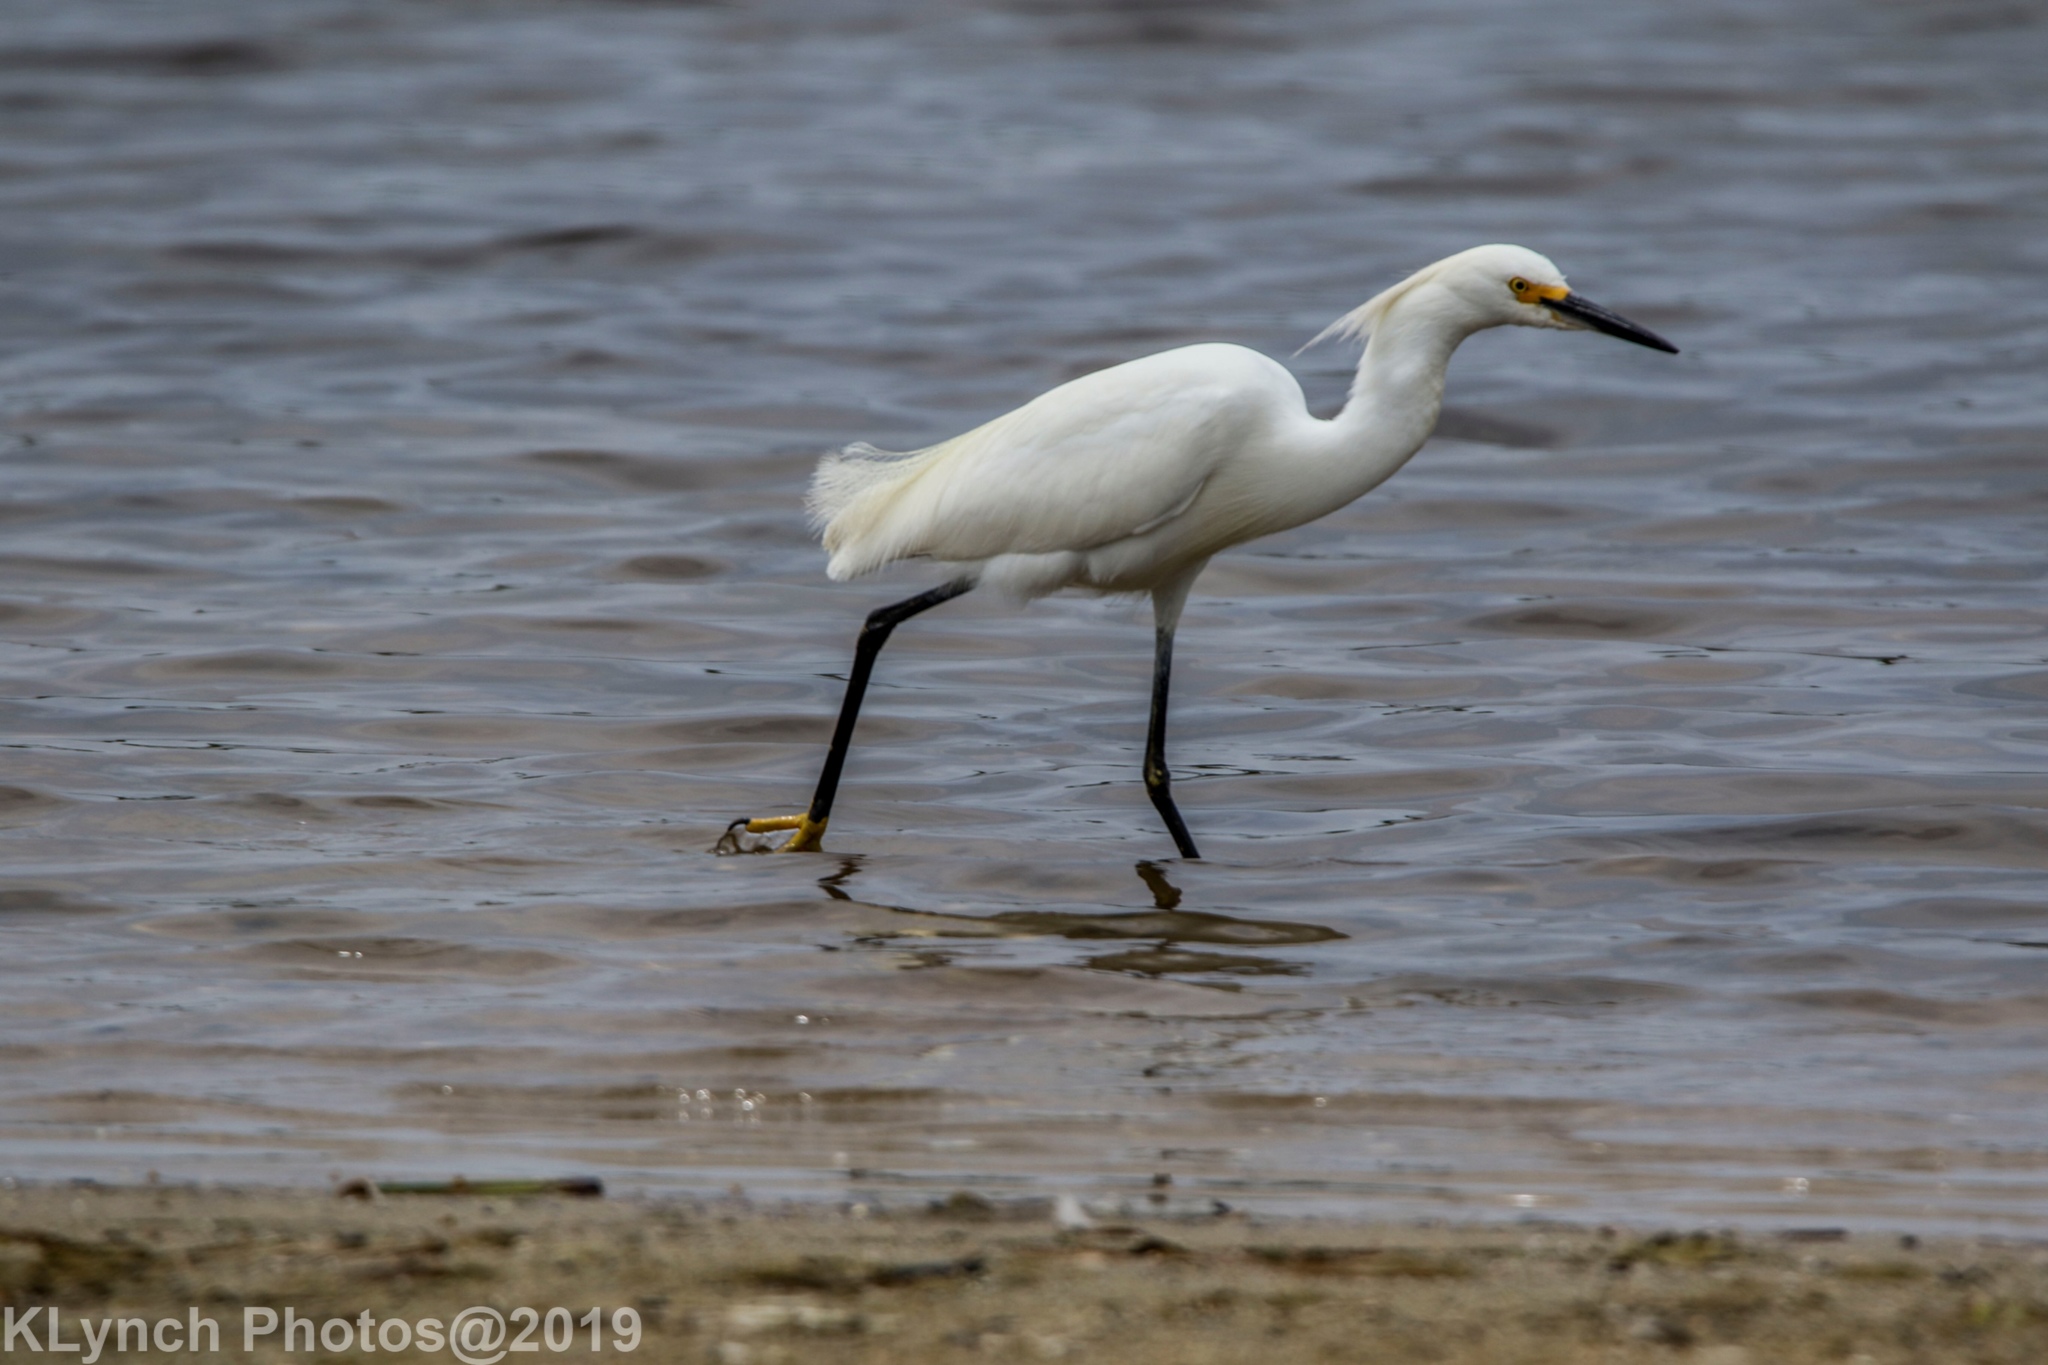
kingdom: Animalia
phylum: Chordata
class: Aves
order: Pelecaniformes
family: Ardeidae
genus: Egretta
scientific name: Egretta thula
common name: Snowy egret
